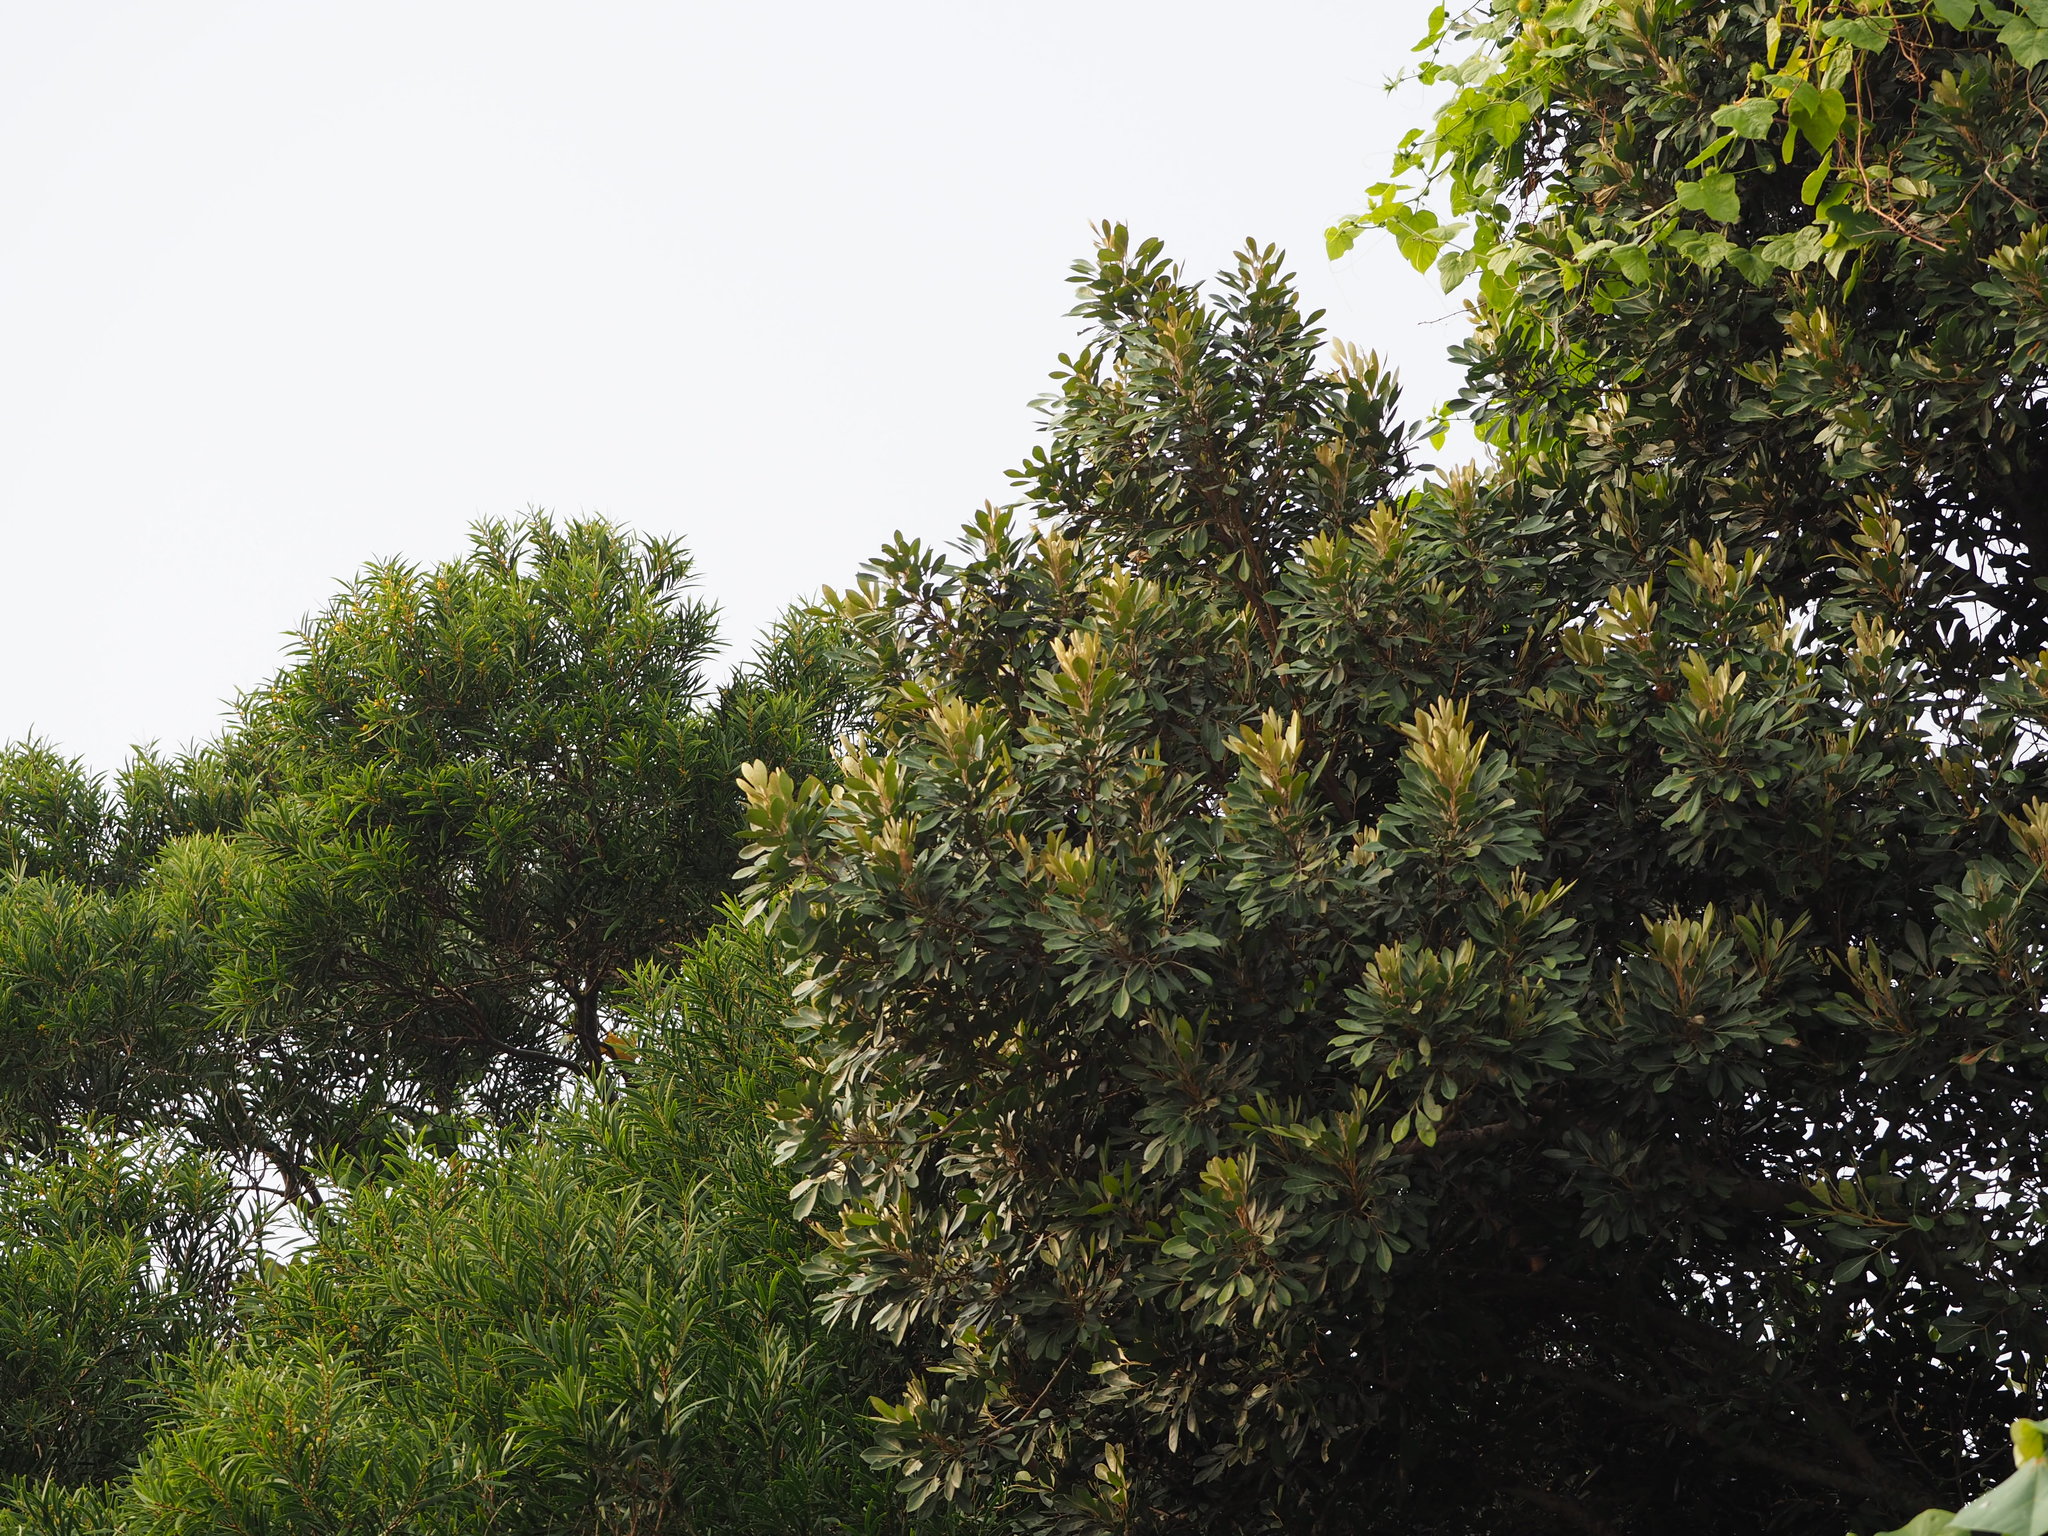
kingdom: Plantae
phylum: Tracheophyta
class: Magnoliopsida
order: Ericales
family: Sapotaceae
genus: Planchonella
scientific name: Planchonella obovata
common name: Black-ash
